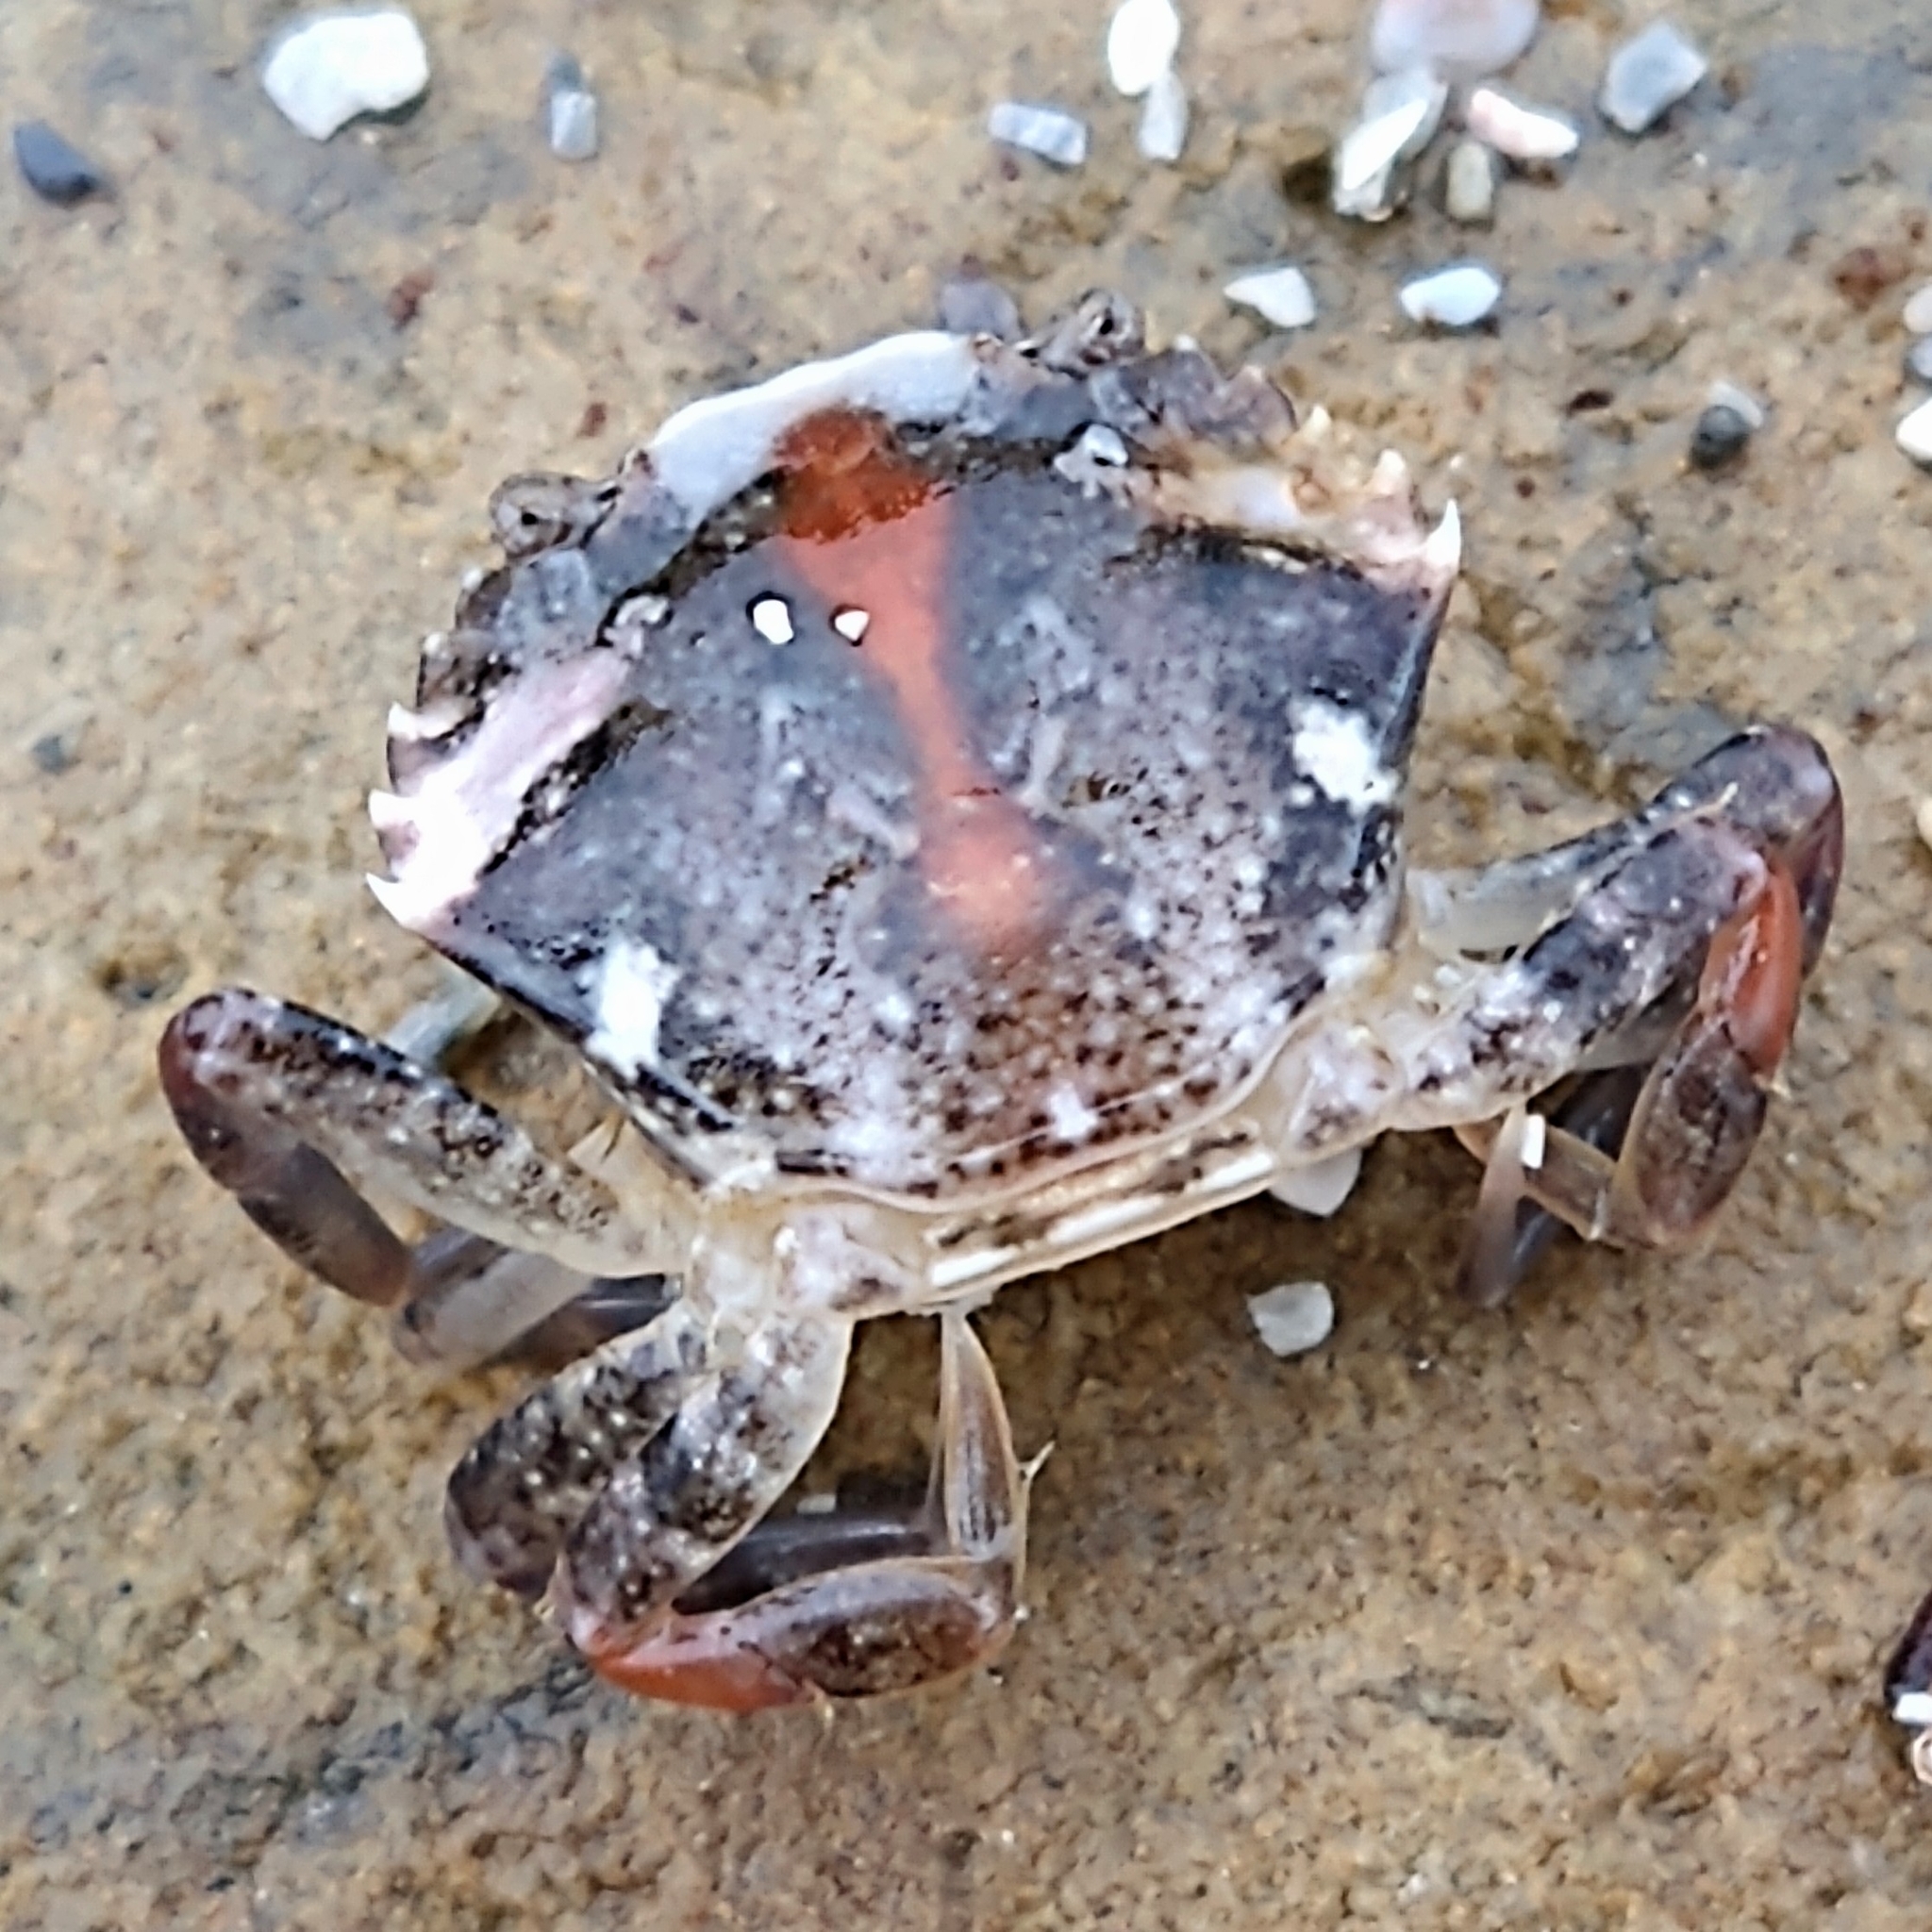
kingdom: Animalia
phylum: Arthropoda
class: Malacostraca
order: Decapoda
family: Carcinidae
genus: Carcinus
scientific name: Carcinus maenas
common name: European green crab
